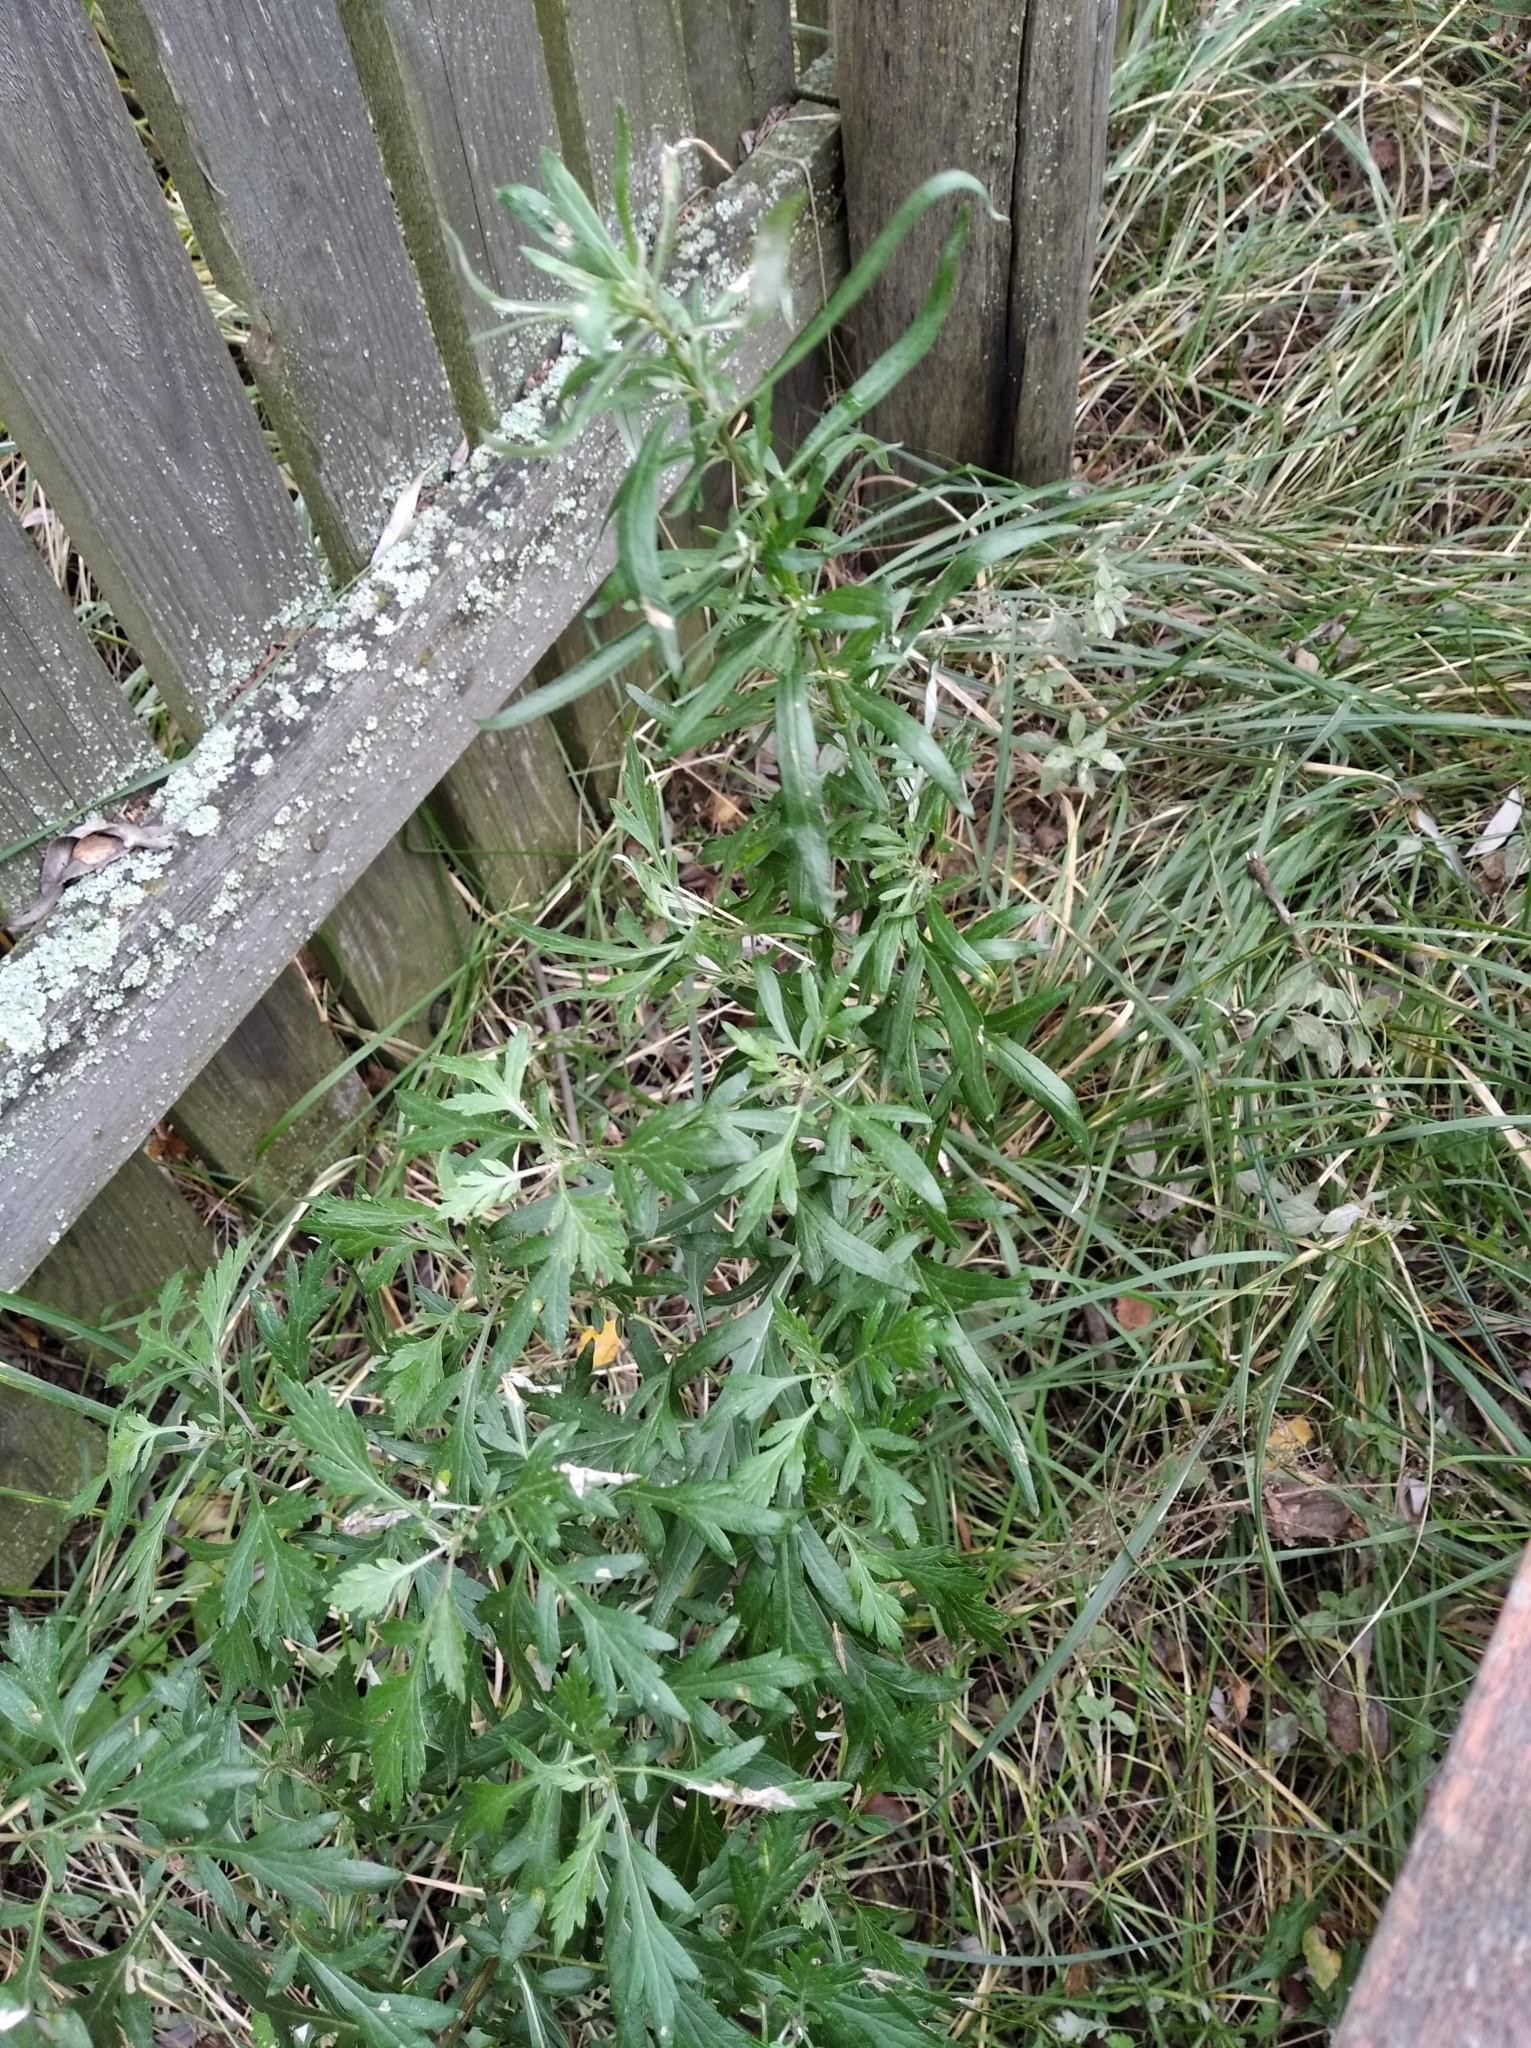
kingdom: Plantae
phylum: Tracheophyta
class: Magnoliopsida
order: Asterales
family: Asteraceae
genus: Artemisia
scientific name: Artemisia vulgaris
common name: Mugwort
